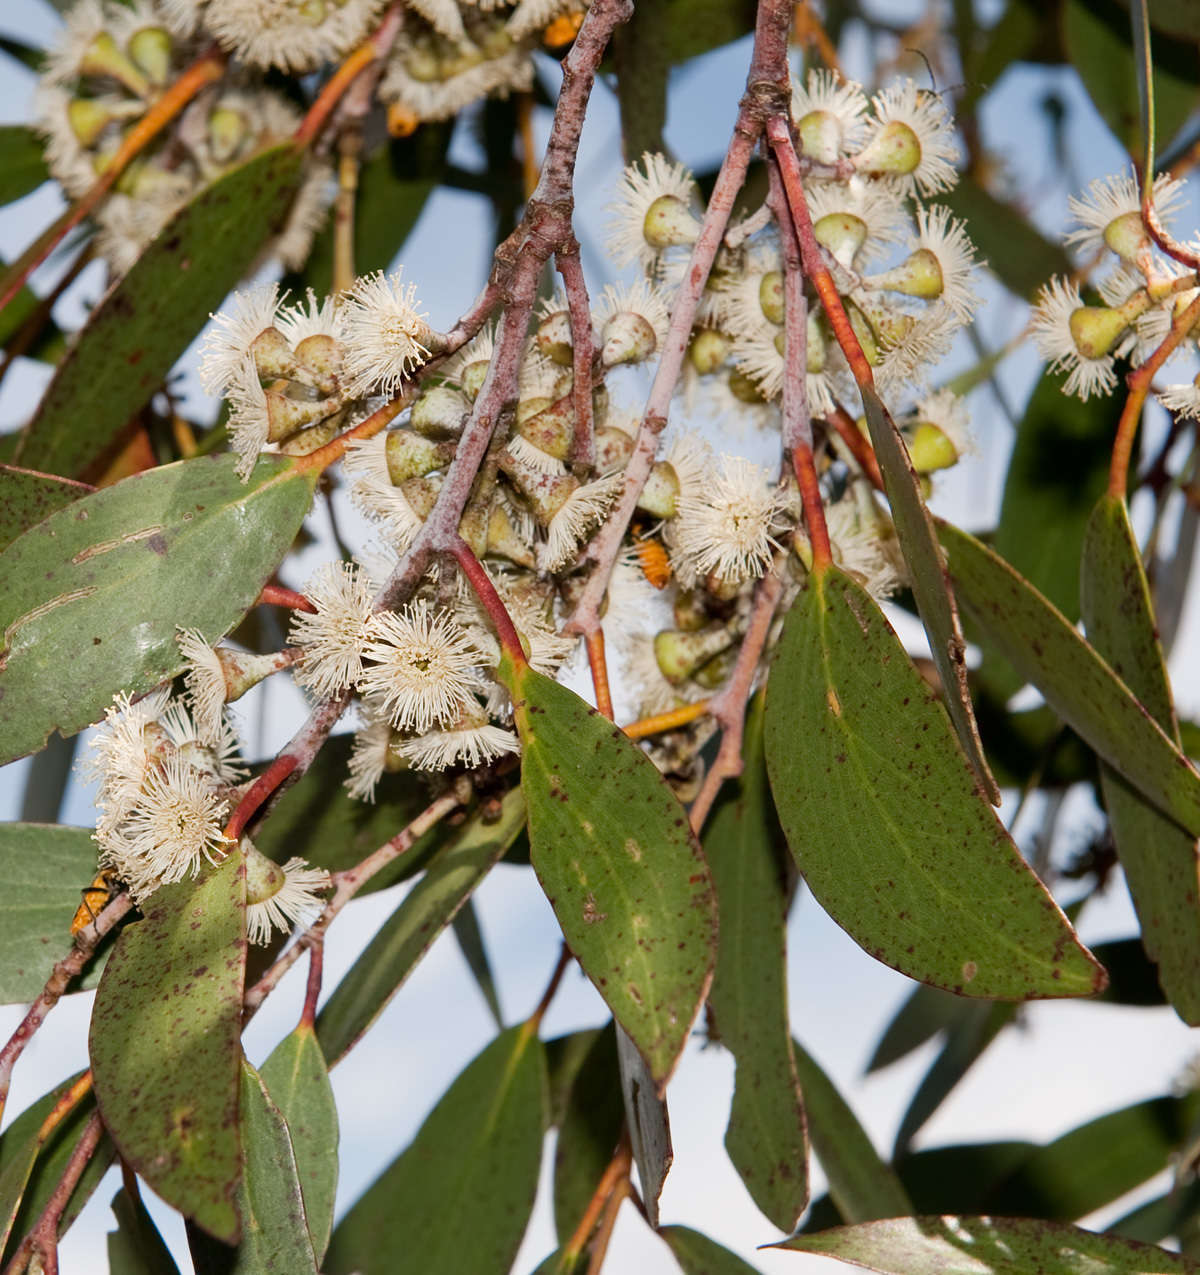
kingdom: Plantae
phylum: Tracheophyta
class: Magnoliopsida
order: Myrtales
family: Myrtaceae
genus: Eucalyptus
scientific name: Eucalyptus pauciflora
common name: Snow gum
